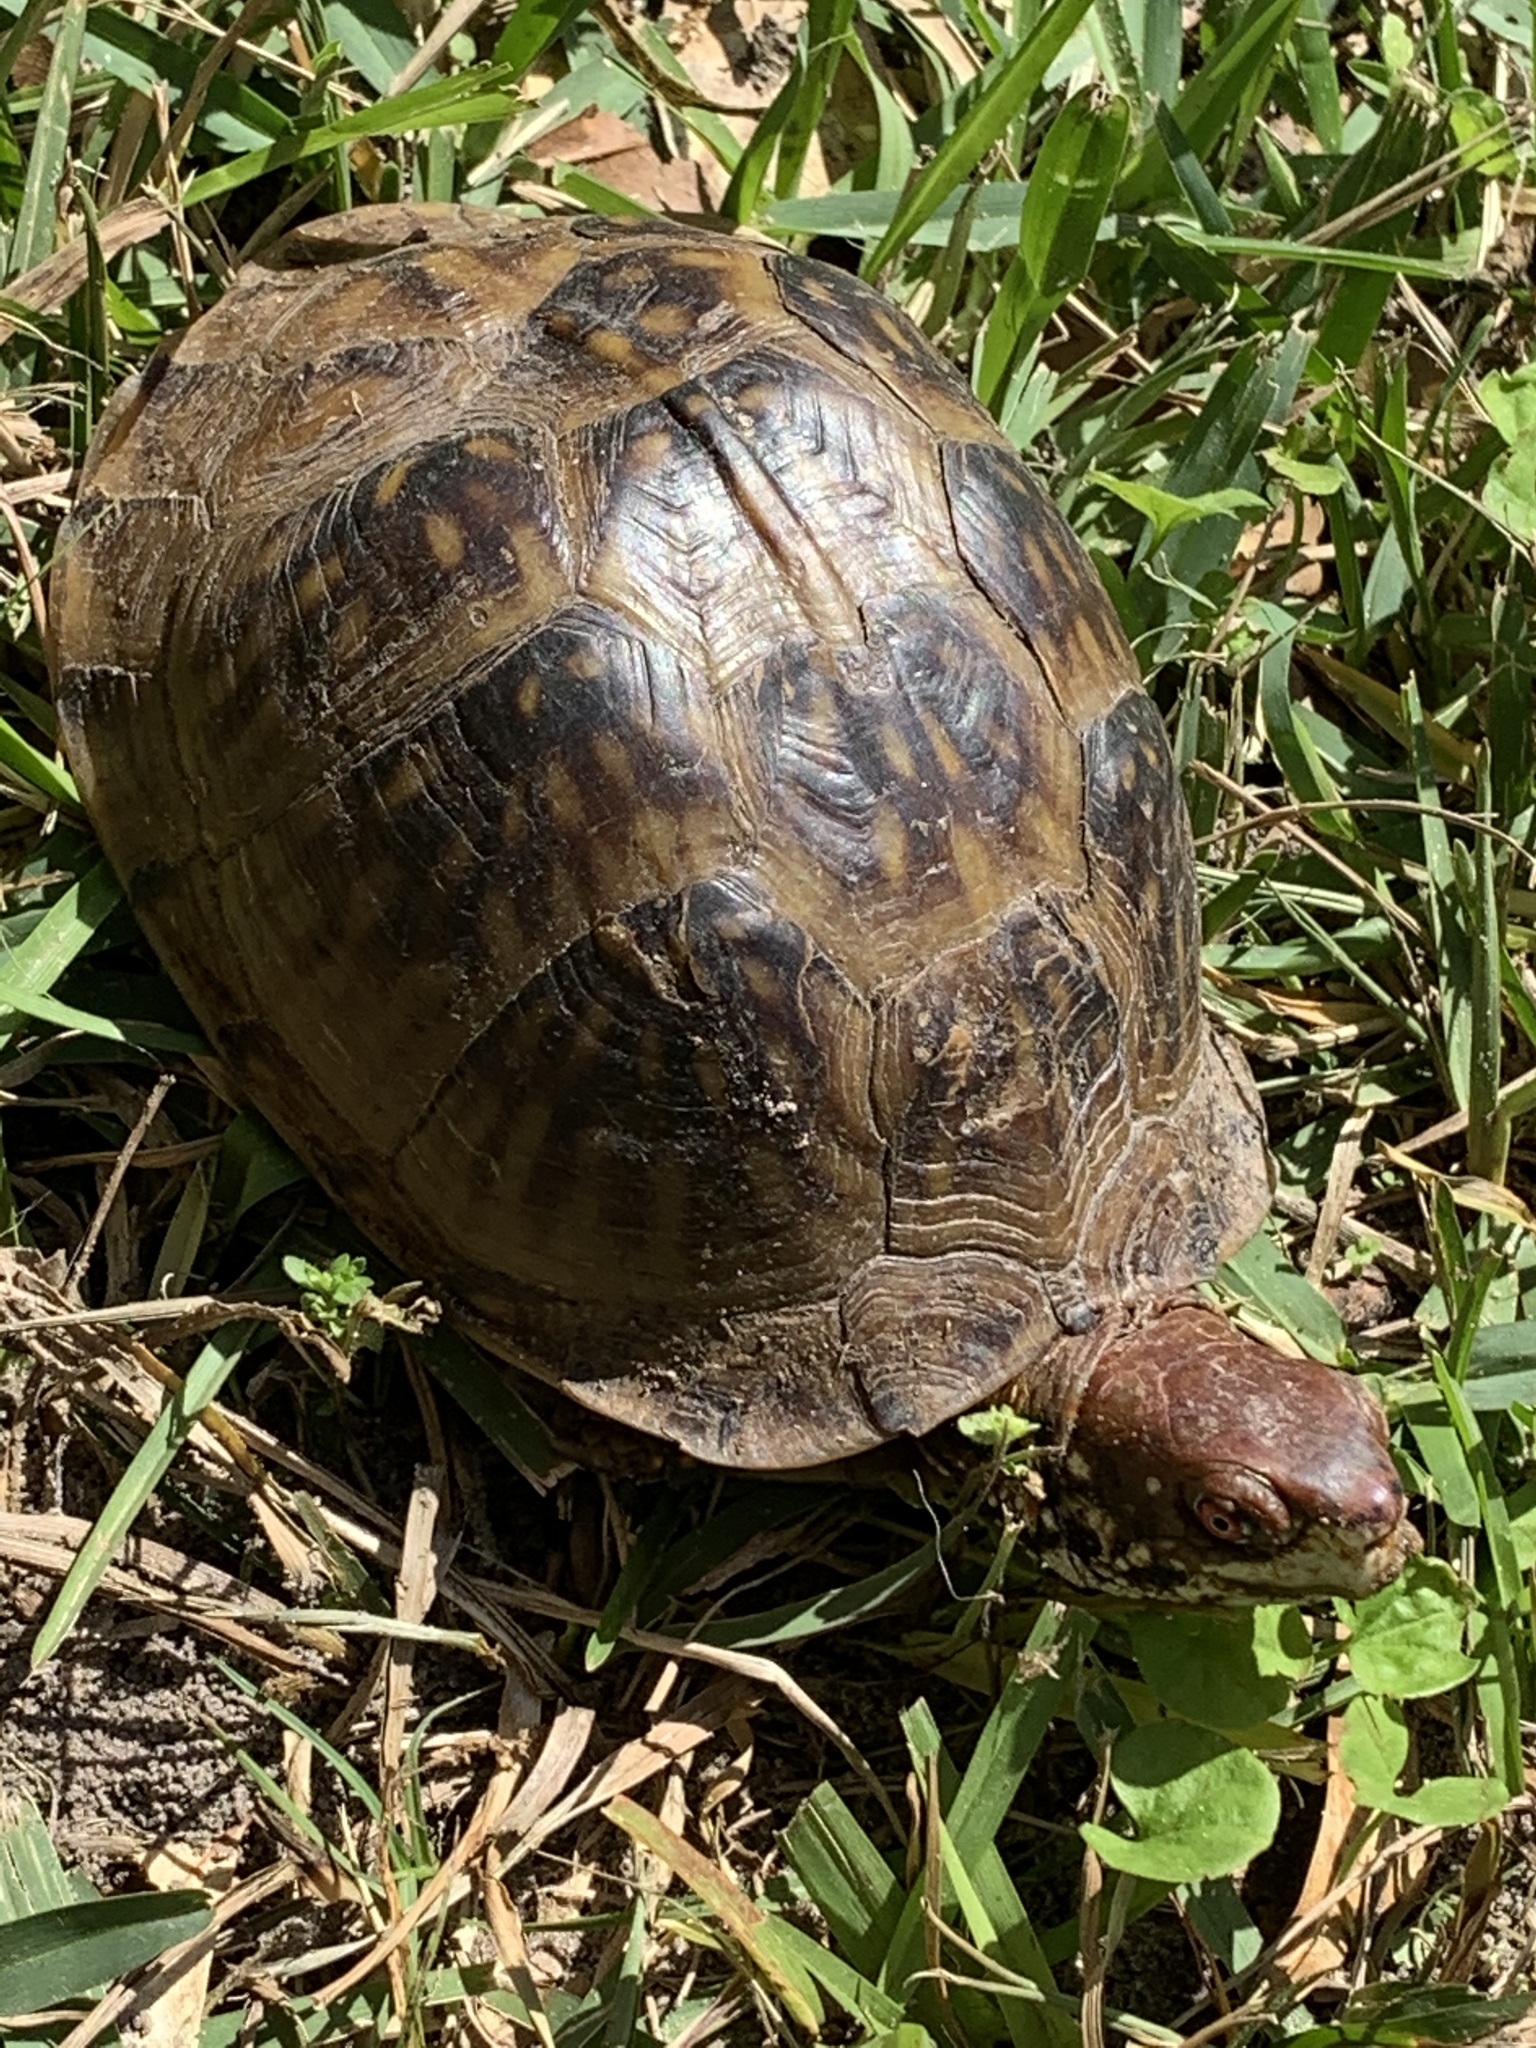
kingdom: Animalia
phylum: Chordata
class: Testudines
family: Emydidae
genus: Terrapene
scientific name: Terrapene carolina
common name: Common box turtle
